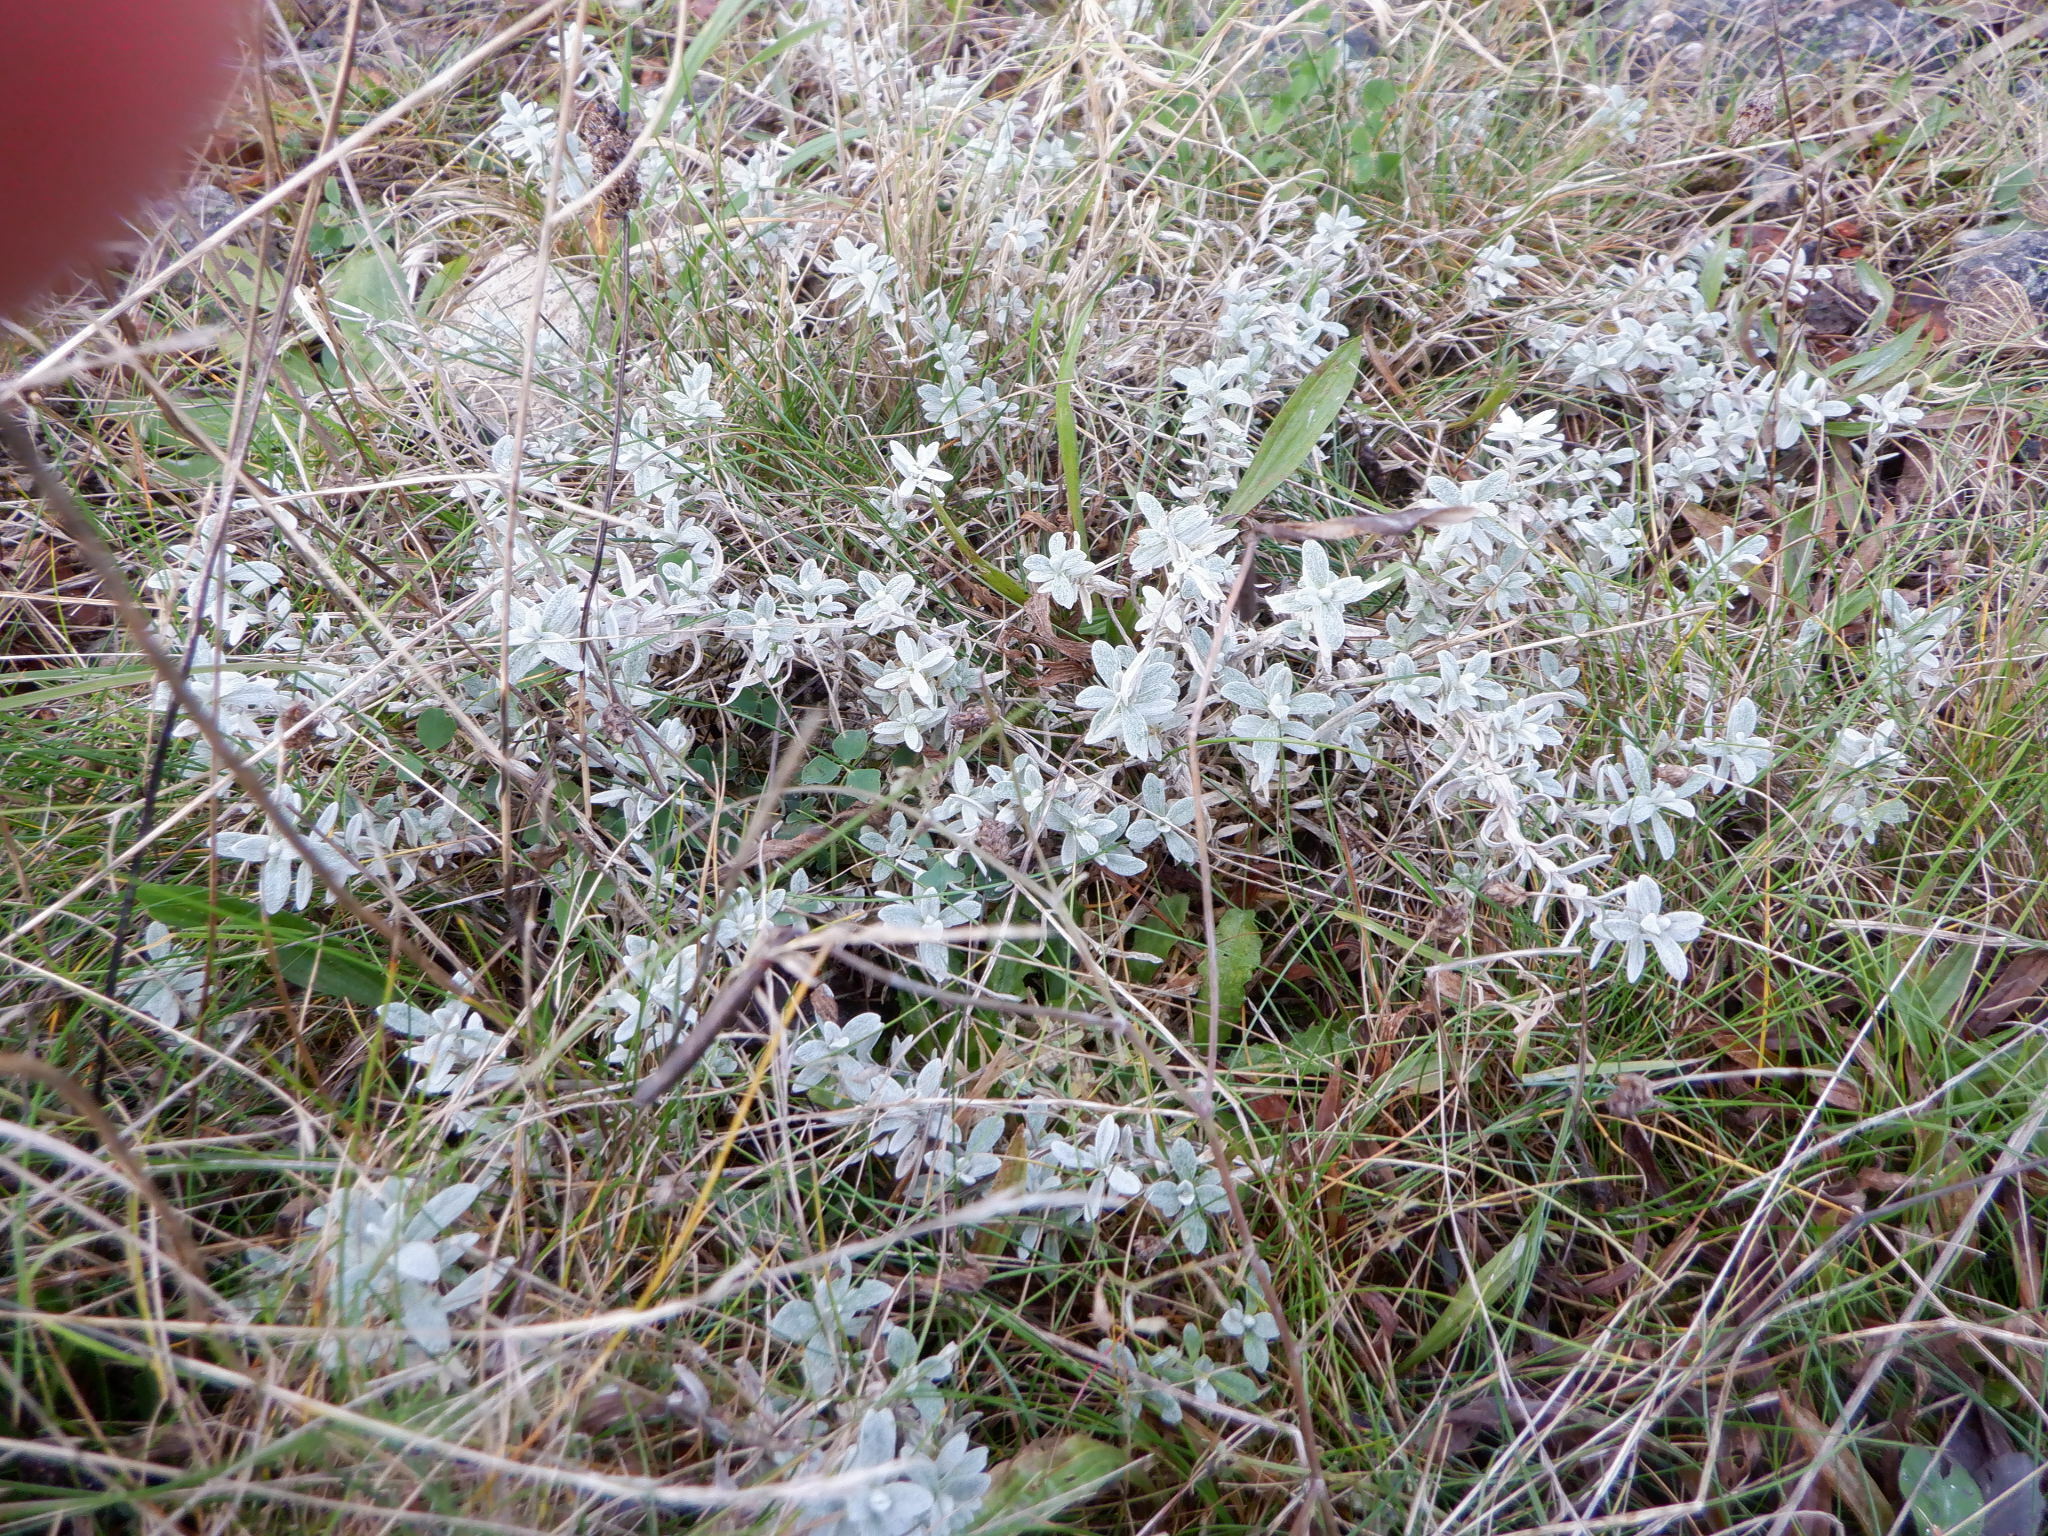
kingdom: Plantae
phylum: Tracheophyta
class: Magnoliopsida
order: Caryophyllales
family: Caryophyllaceae
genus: Cerastium
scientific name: Cerastium tomentosum
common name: Snow-in-summer
